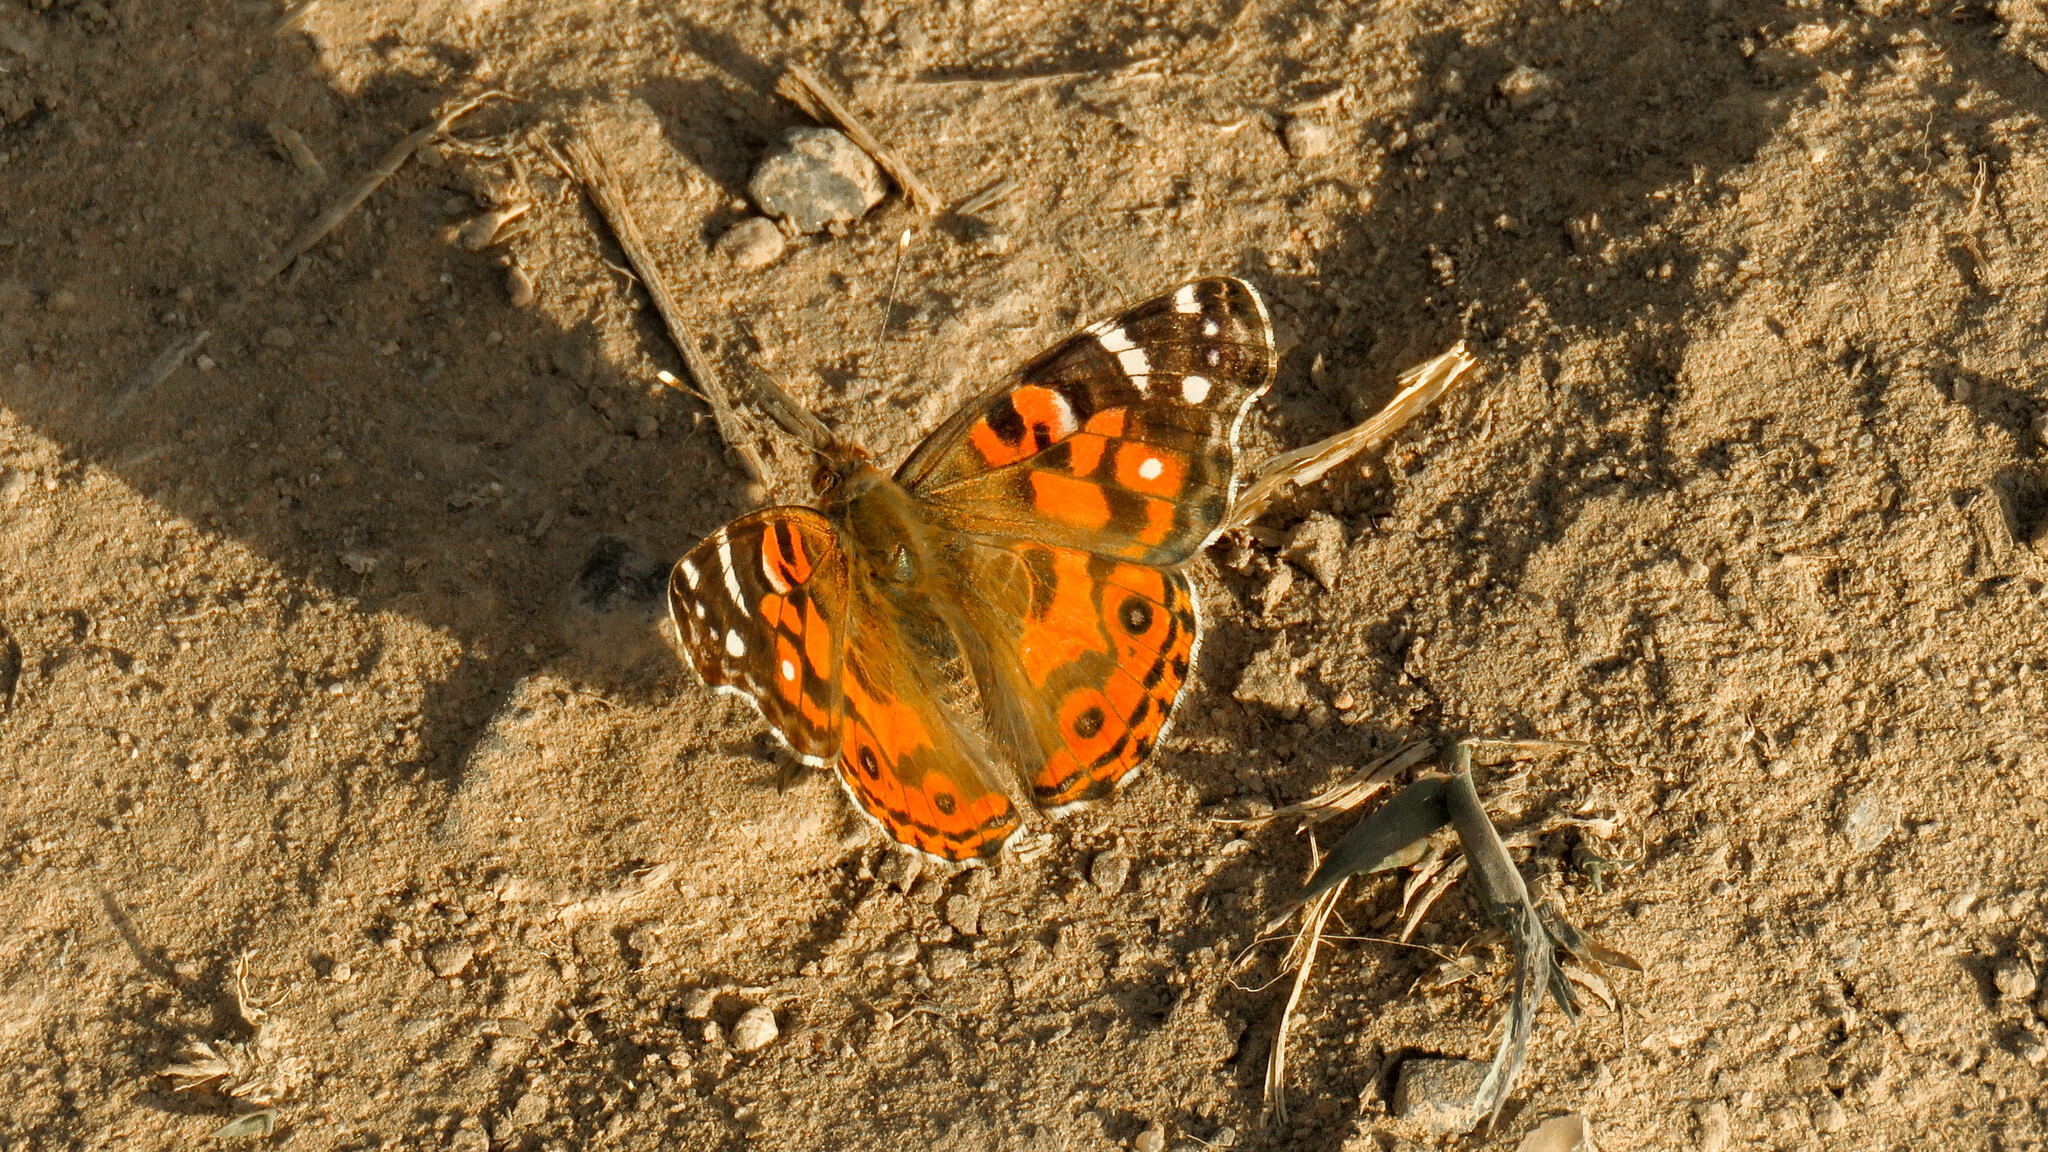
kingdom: Animalia
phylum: Arthropoda
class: Insecta
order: Lepidoptera
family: Nymphalidae
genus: Vanessa
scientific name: Vanessa braziliensis
